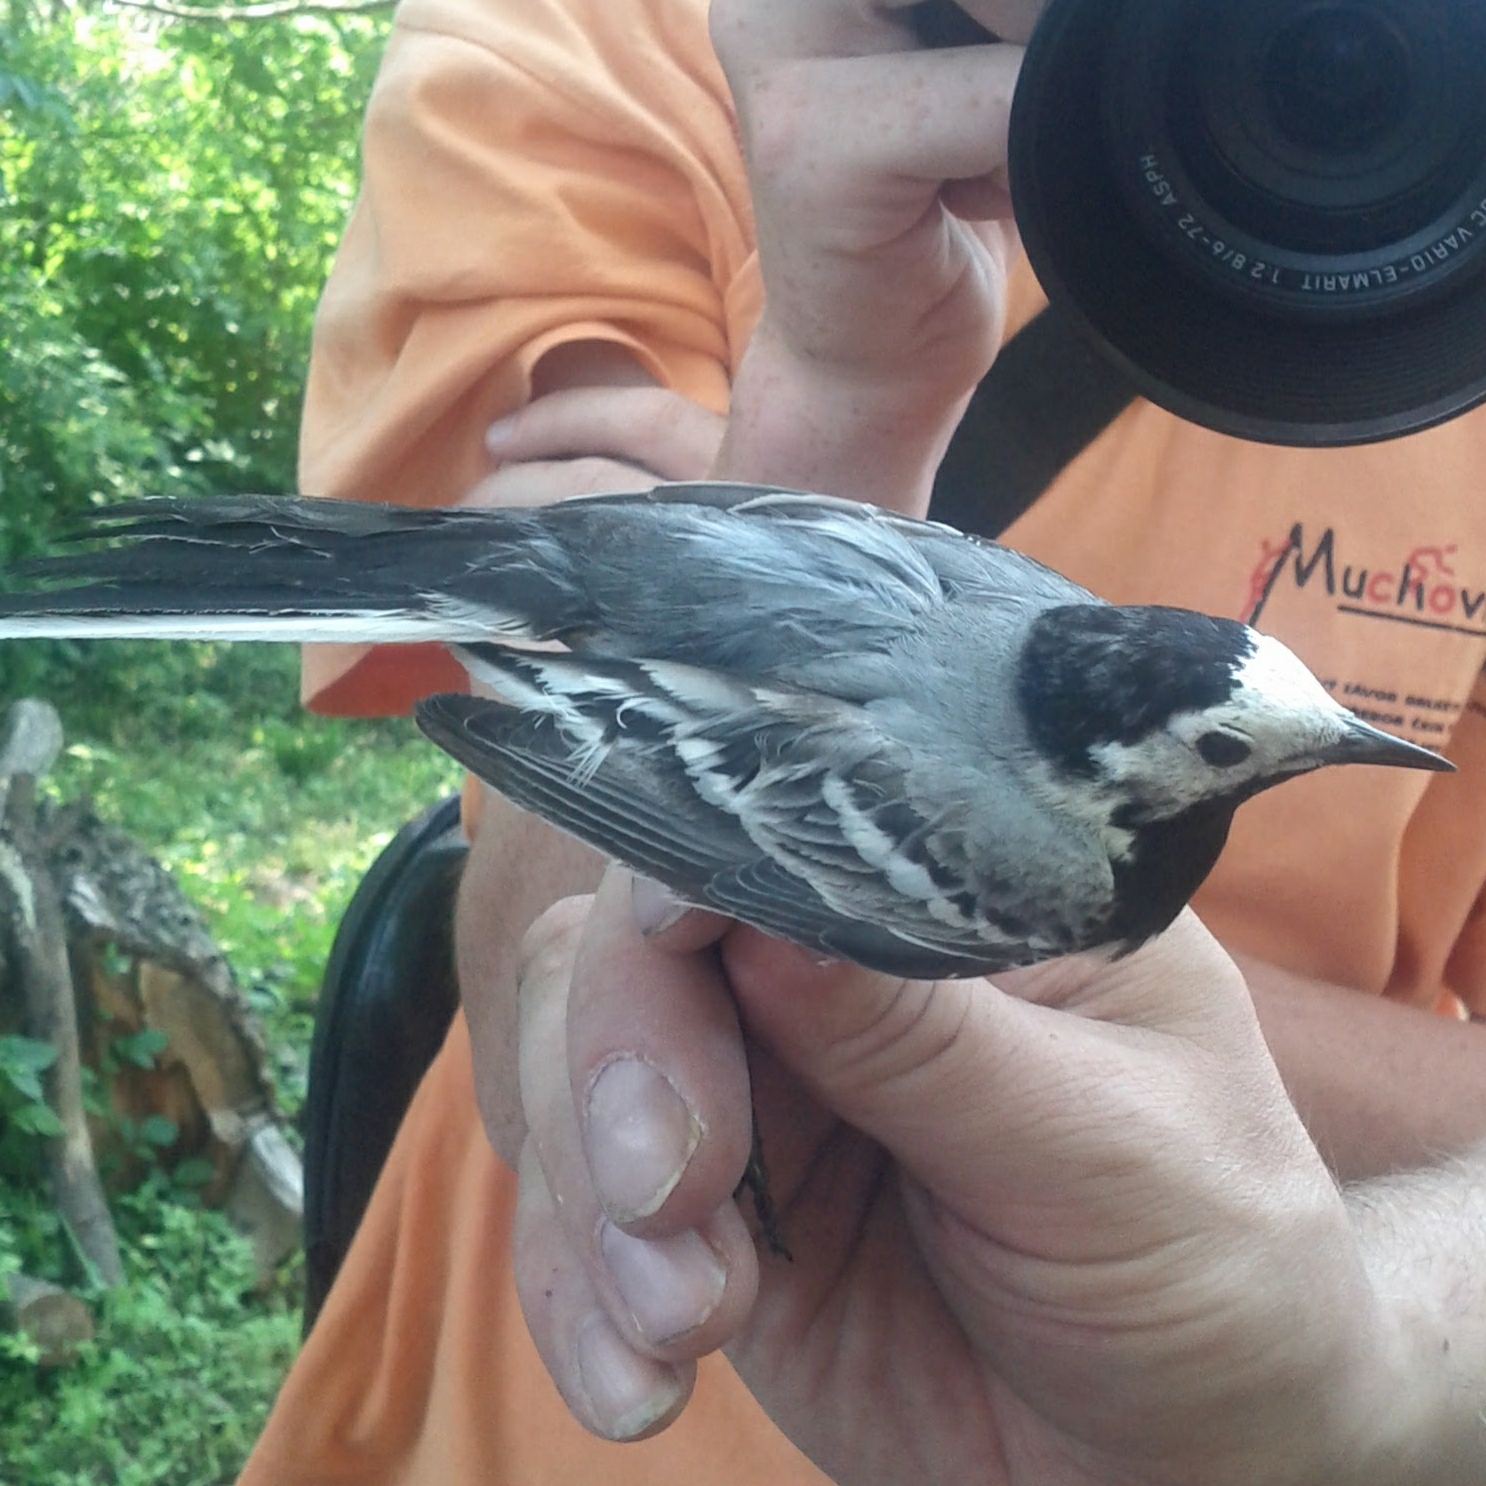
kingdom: Animalia
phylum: Chordata
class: Aves
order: Passeriformes
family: Motacillidae
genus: Motacilla
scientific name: Motacilla alba
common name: White wagtail
